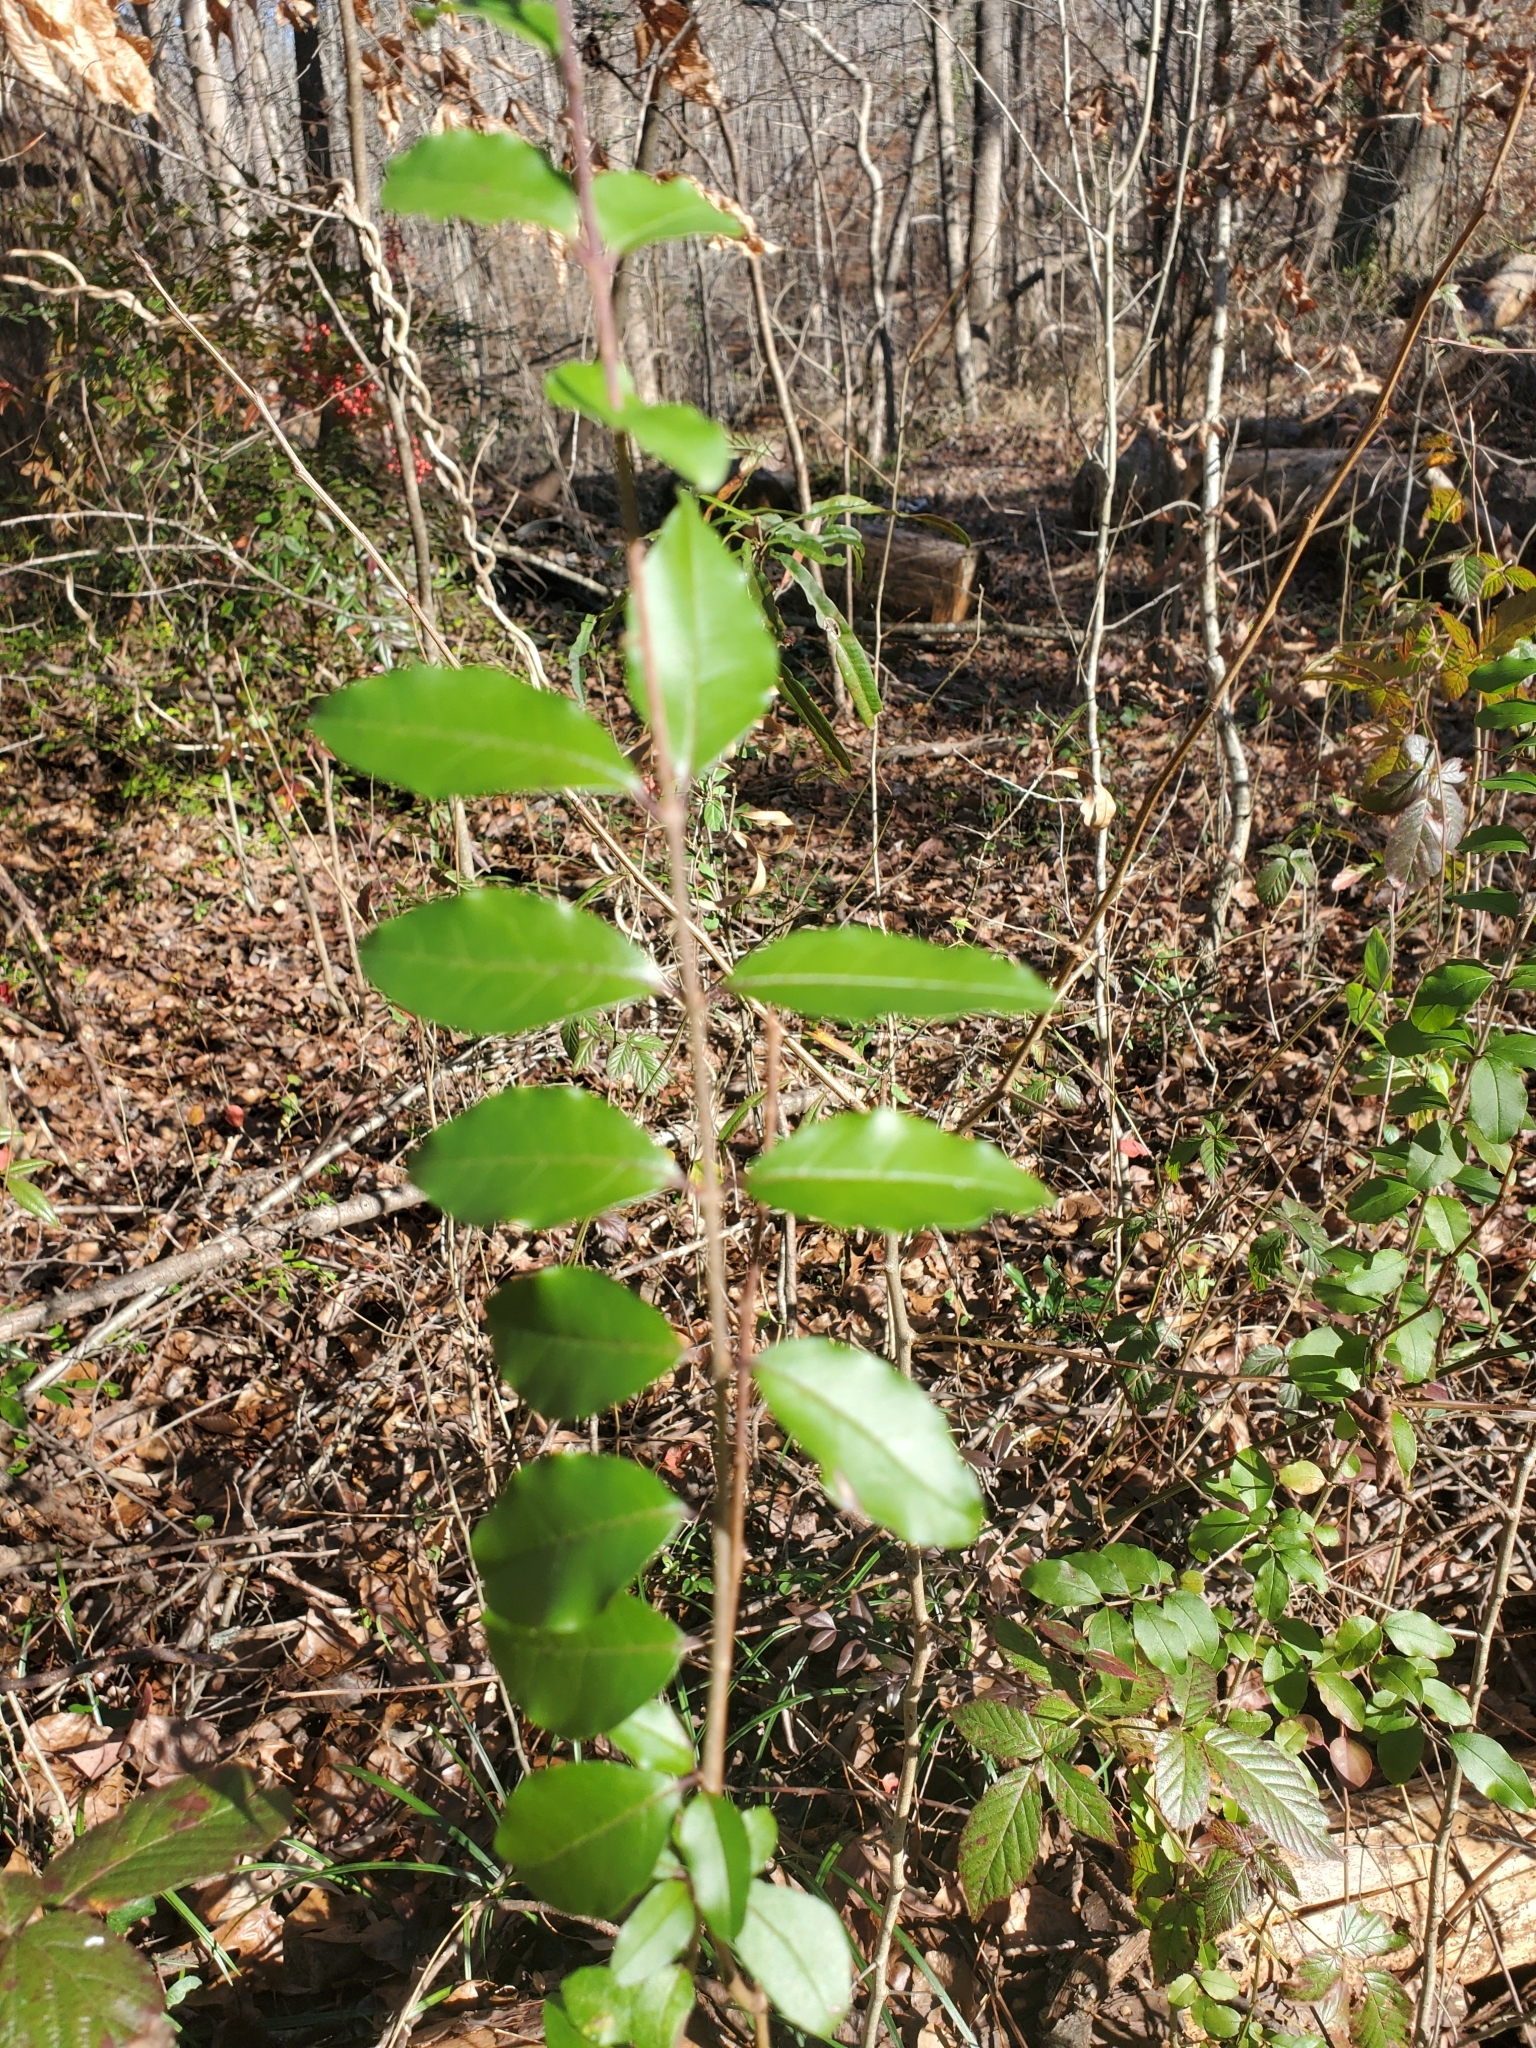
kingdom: Plantae
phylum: Tracheophyta
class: Magnoliopsida
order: Lamiales
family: Oleaceae
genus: Ligustrum
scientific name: Ligustrum sinense
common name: Chinese privet
